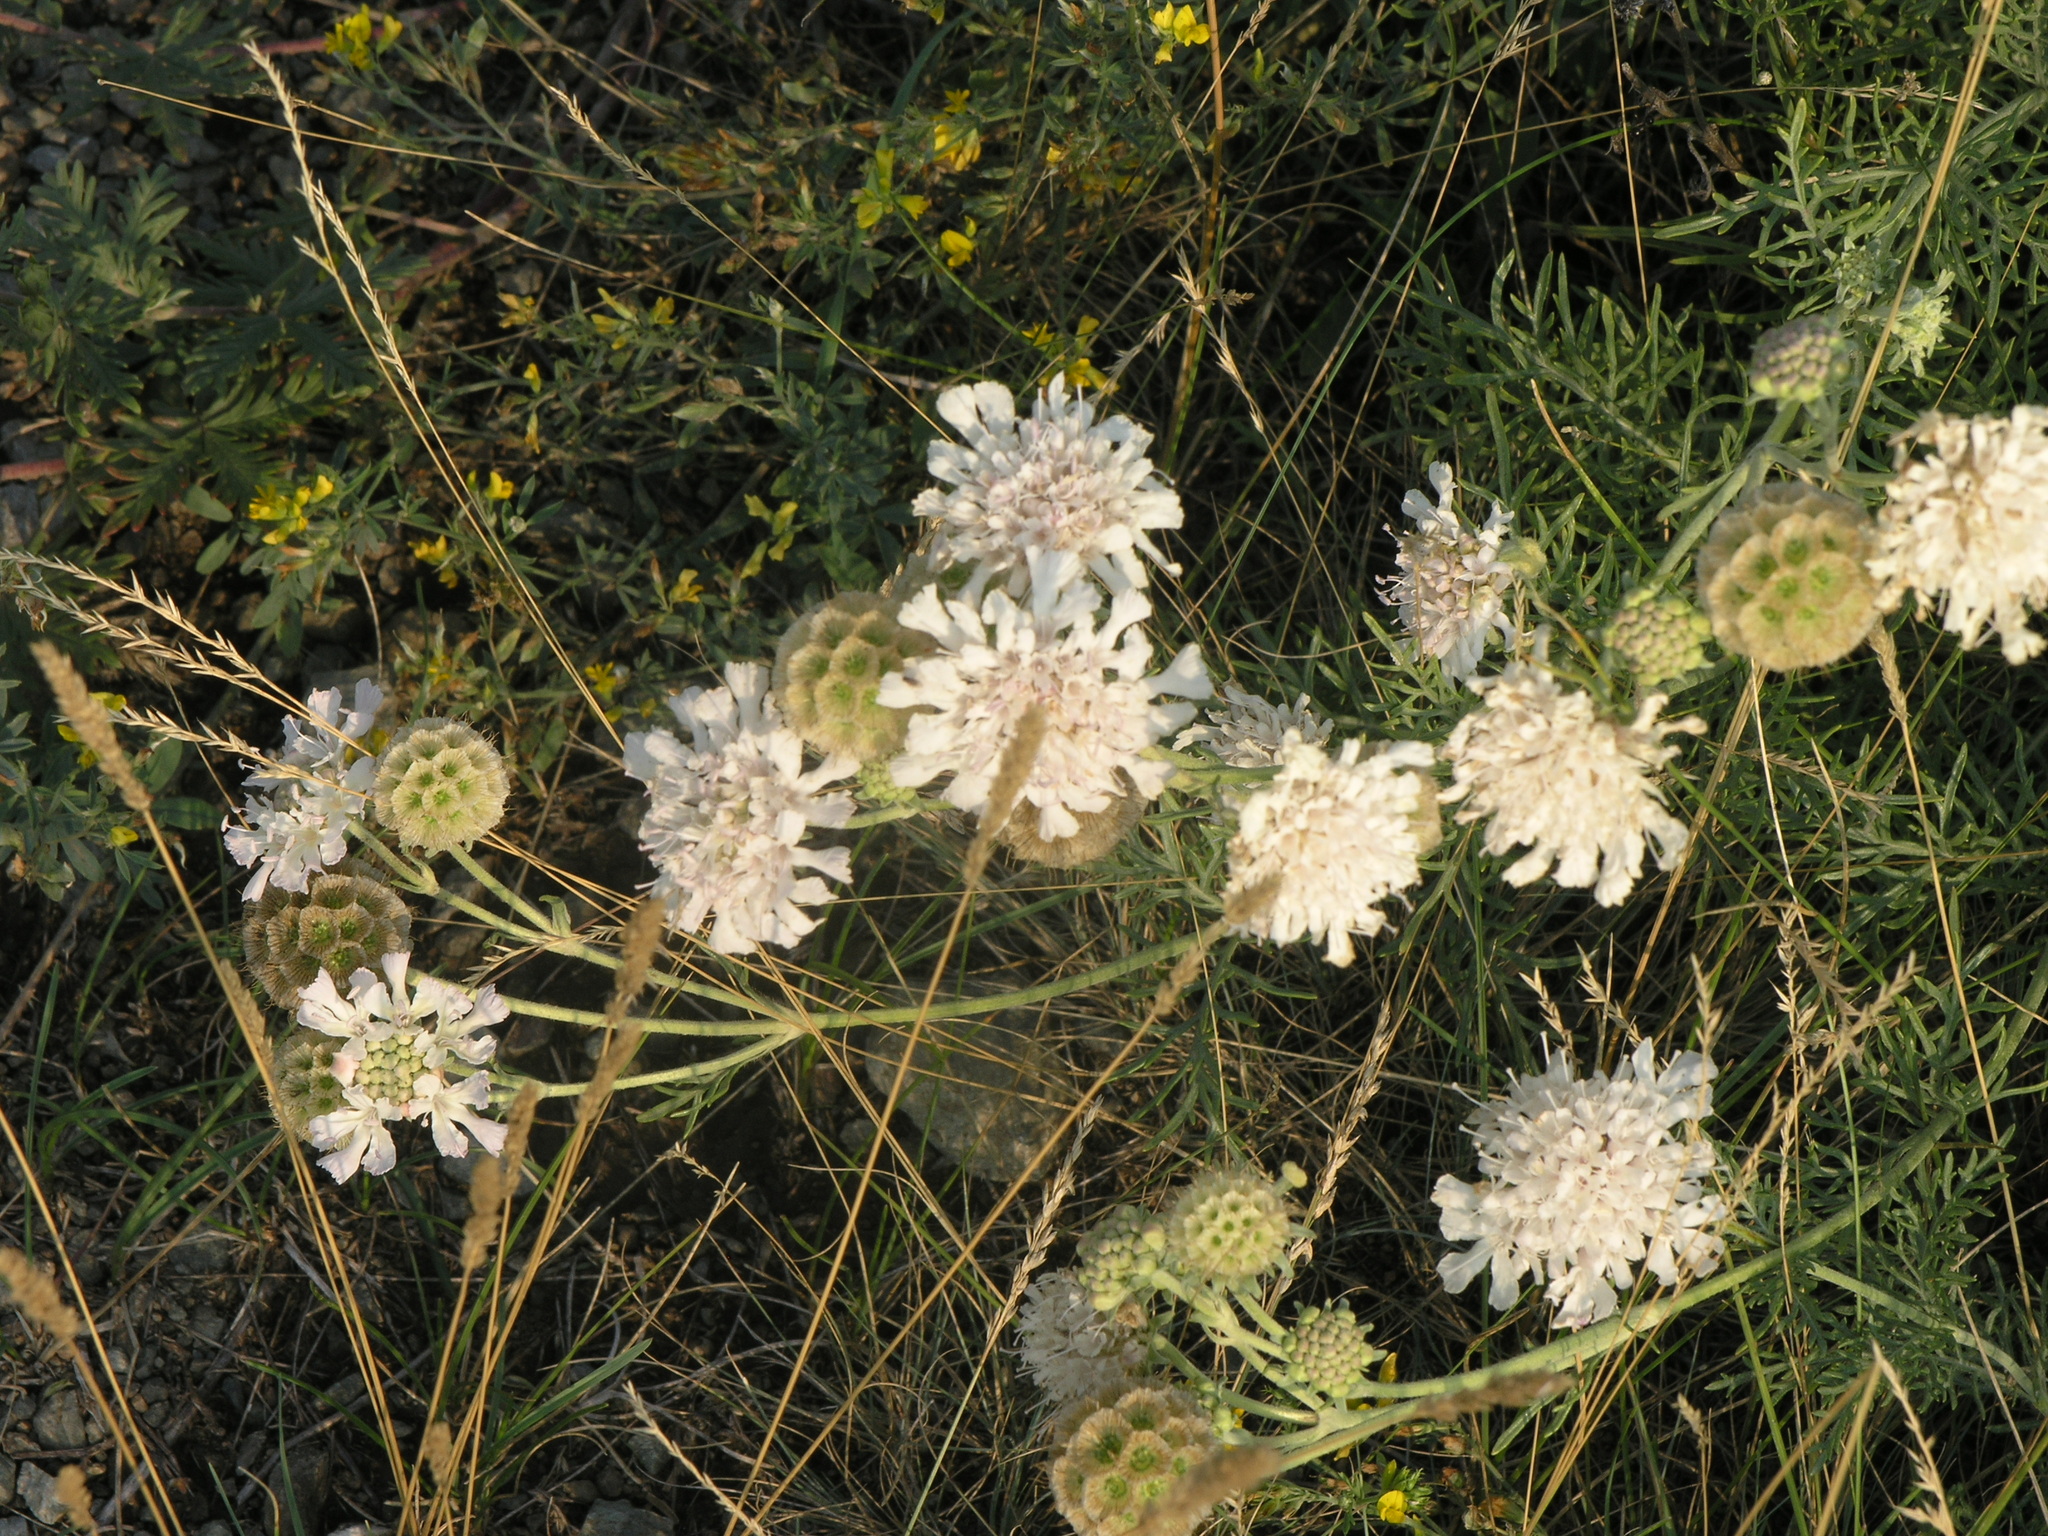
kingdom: Plantae
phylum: Tracheophyta
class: Magnoliopsida
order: Dipsacales
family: Caprifoliaceae
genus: Scabiosa
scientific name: Scabiosa ochroleuca
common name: Cream pincushions
